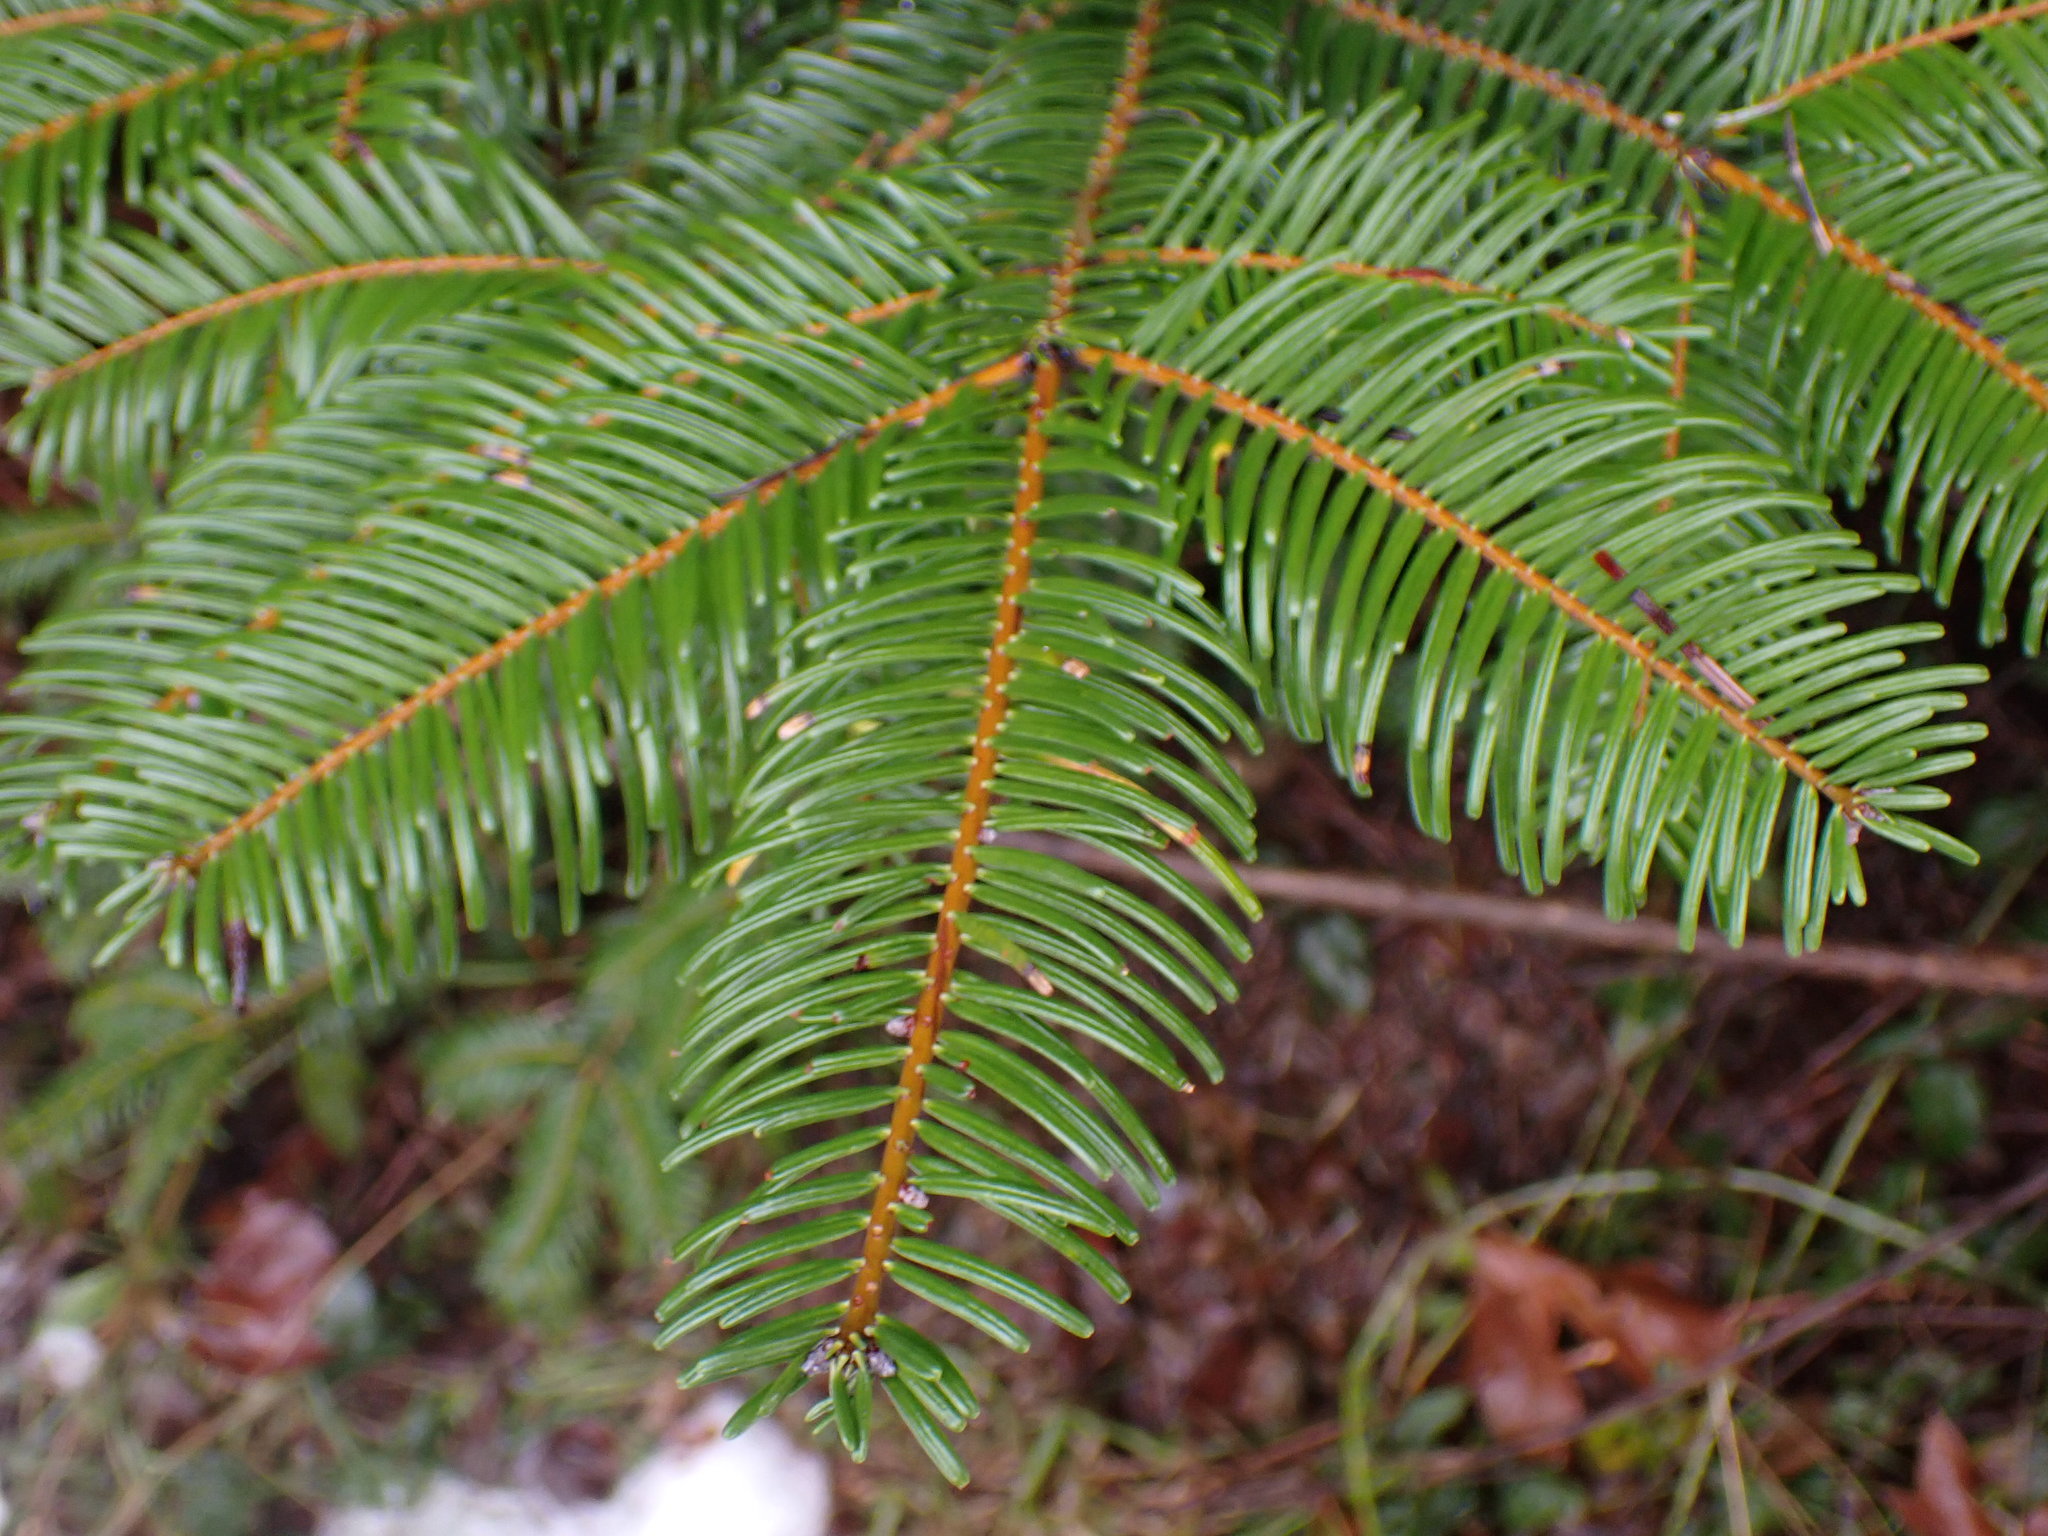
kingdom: Plantae
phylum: Tracheophyta
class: Pinopsida
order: Pinales
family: Pinaceae
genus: Abies
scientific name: Abies grandis
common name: Giant fir
